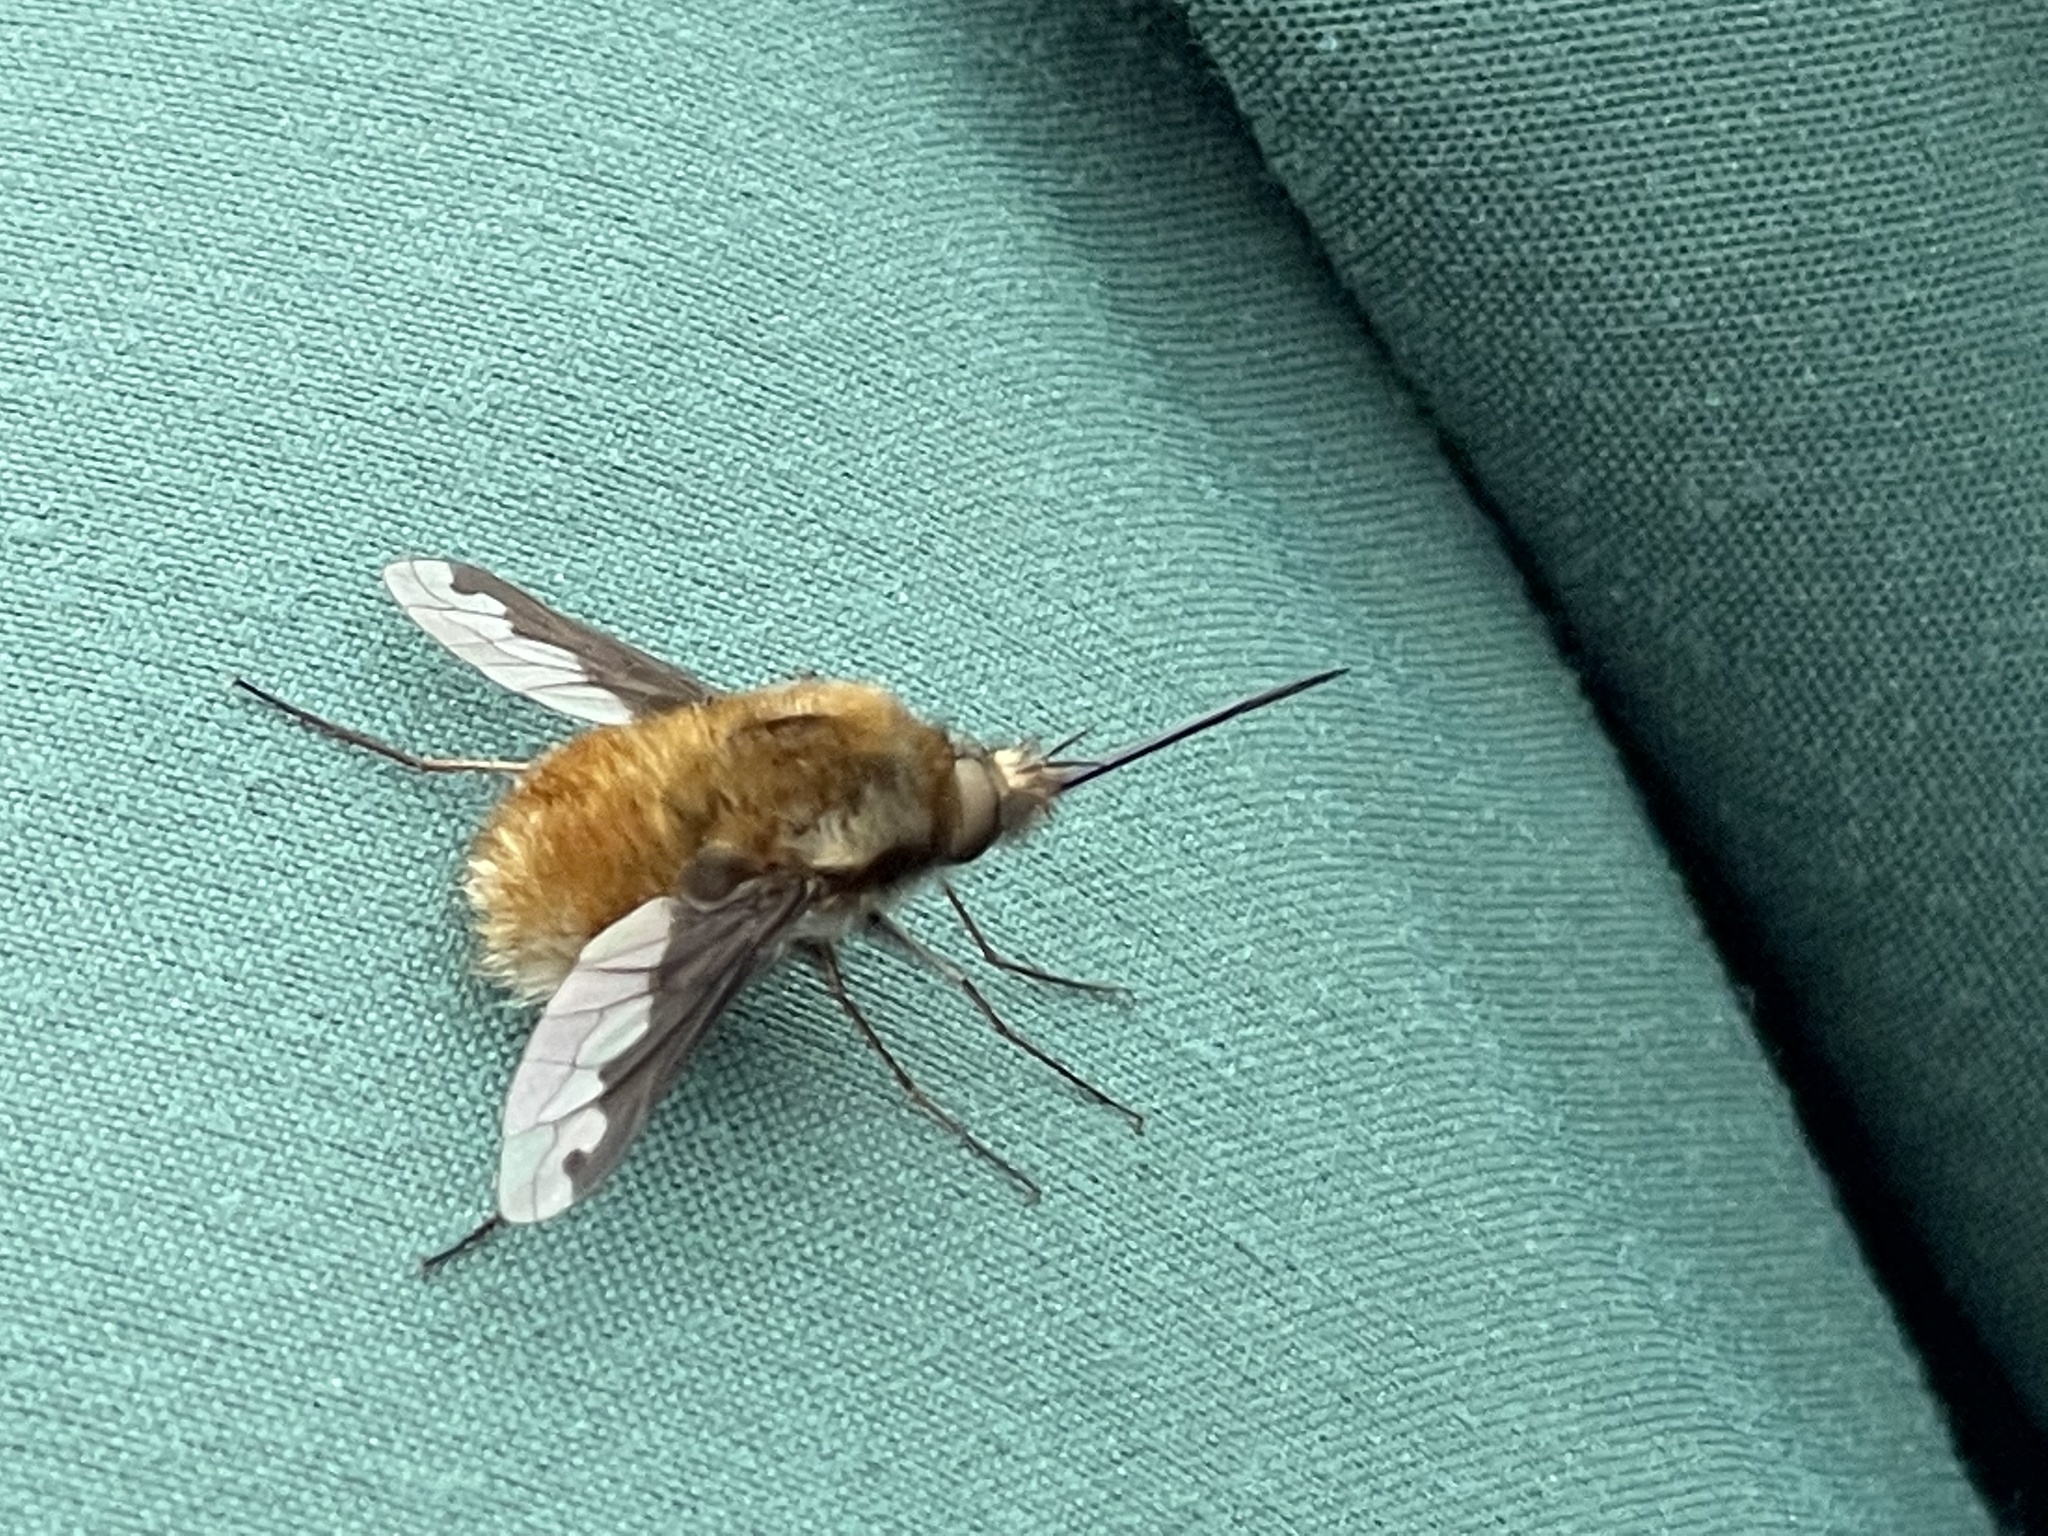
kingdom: Animalia
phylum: Arthropoda
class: Insecta
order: Diptera
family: Bombyliidae
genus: Bombylius
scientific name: Bombylius major
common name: Bee fly
